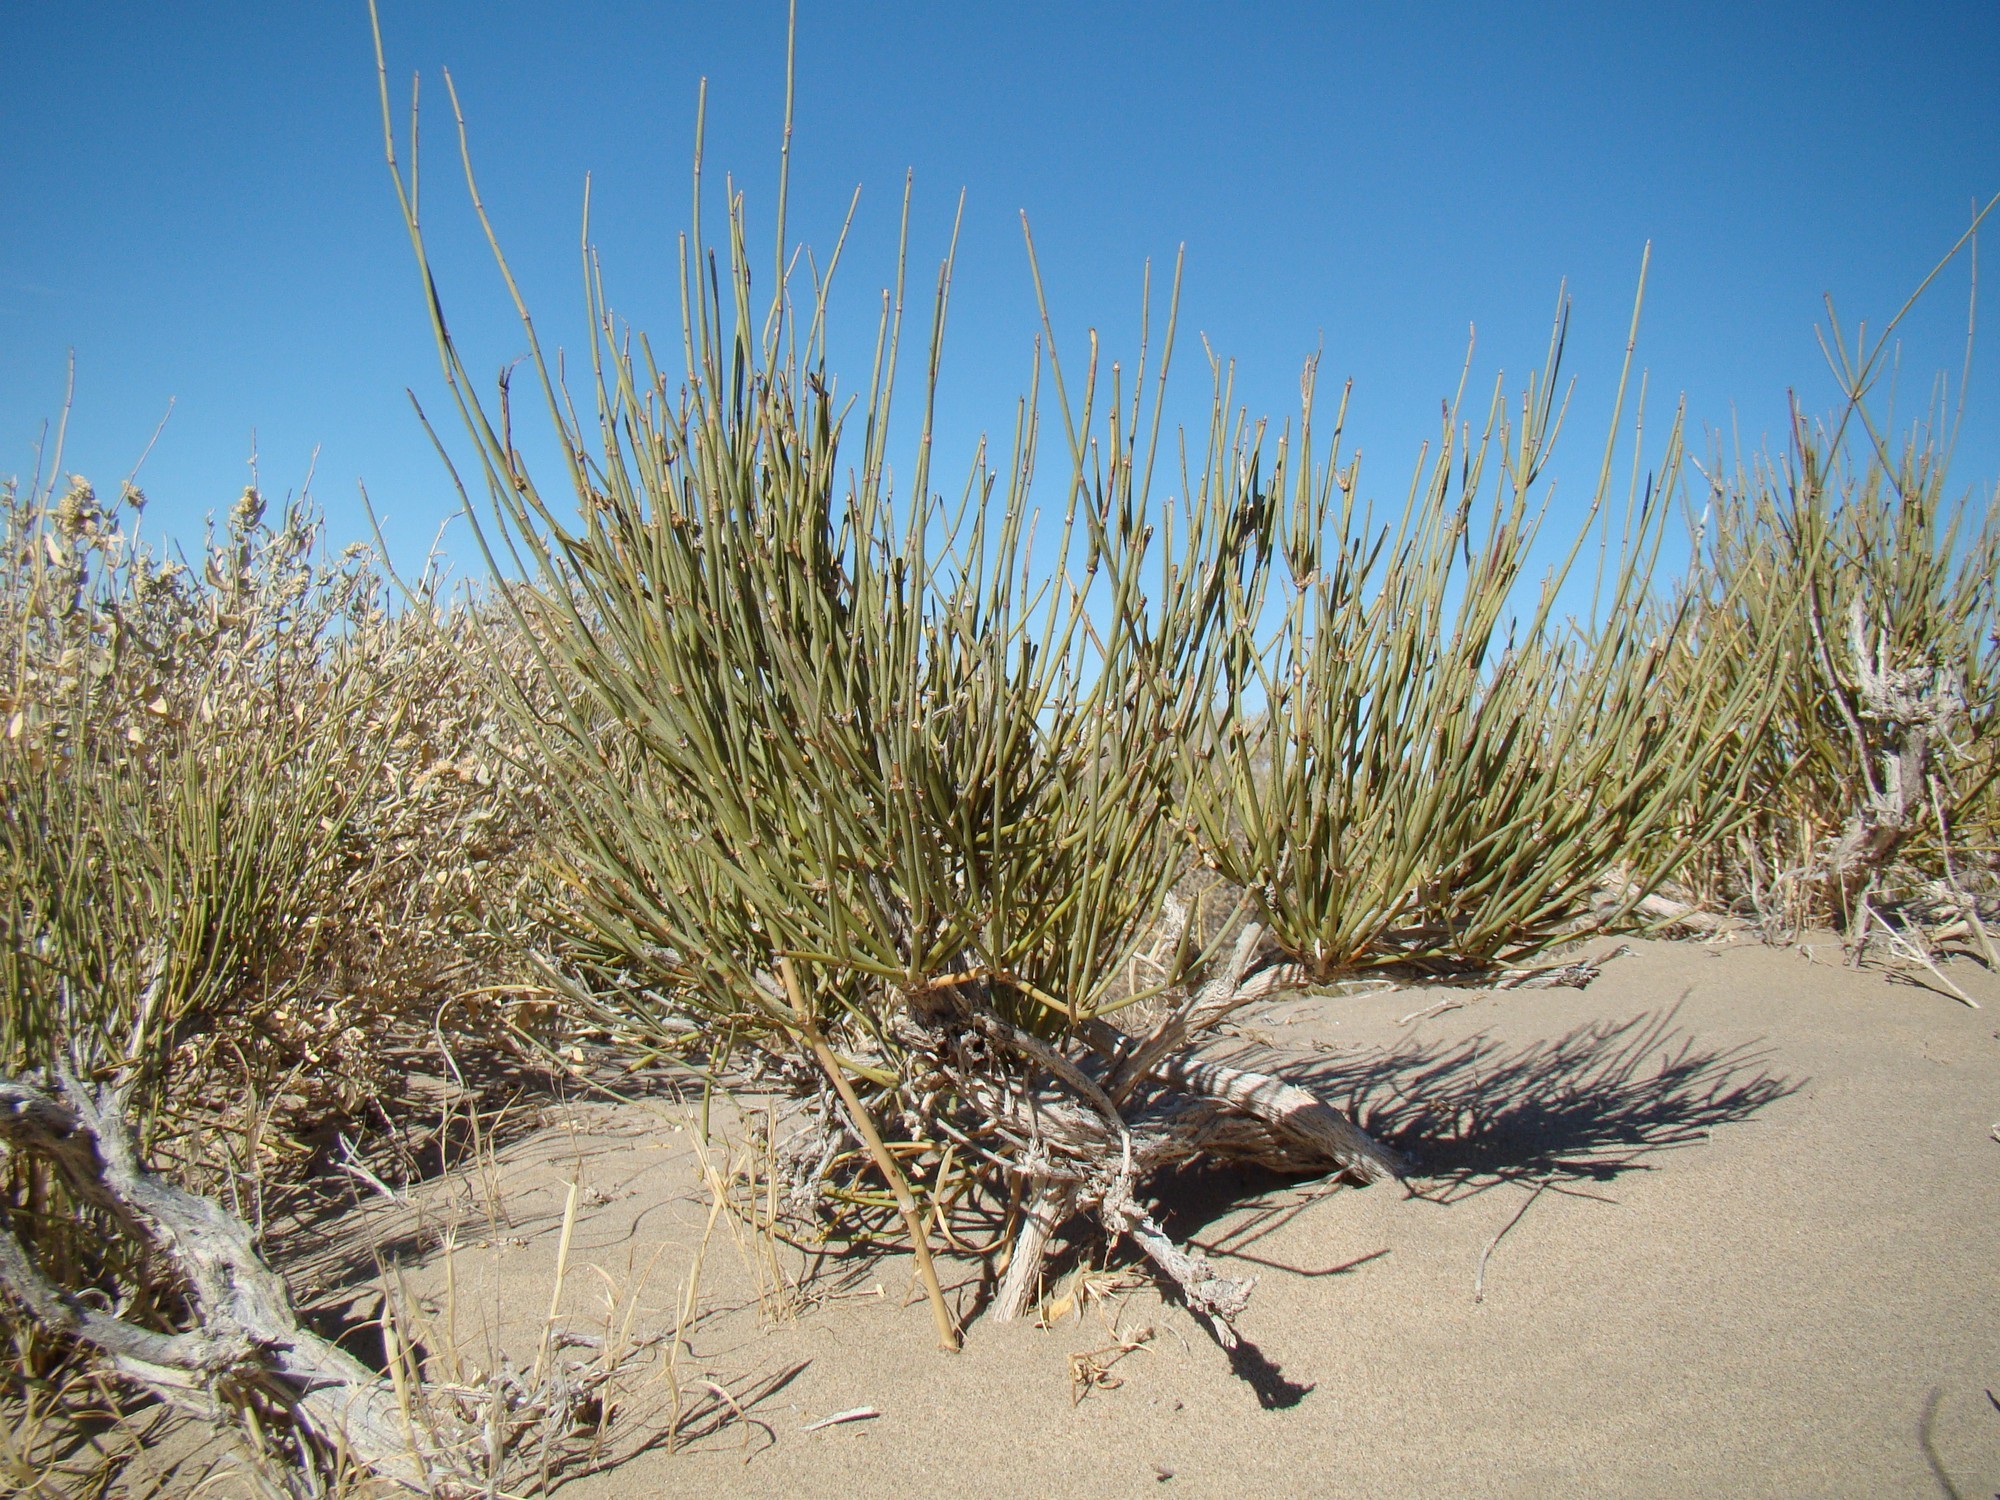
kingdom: Plantae
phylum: Tracheophyta
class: Gnetopsida
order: Ephedrales
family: Ephedraceae
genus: Ephedra
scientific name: Ephedra intermedia
